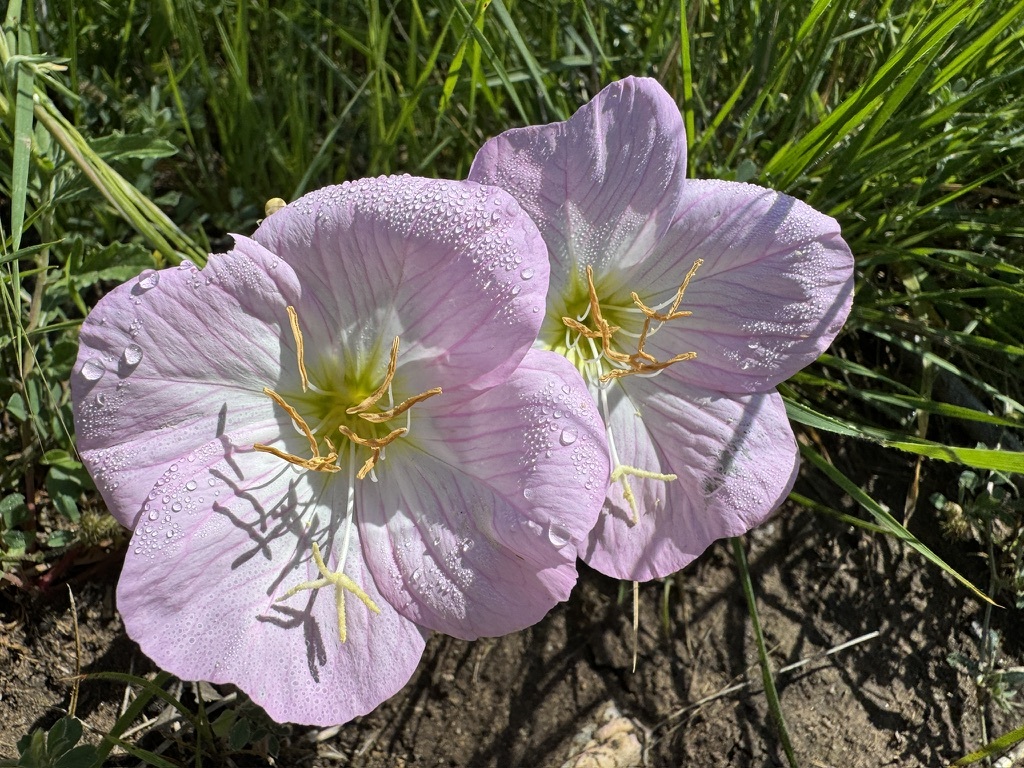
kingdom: Plantae
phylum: Tracheophyta
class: Magnoliopsida
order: Myrtales
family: Onagraceae
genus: Oenothera
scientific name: Oenothera speciosa
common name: White evening-primrose
